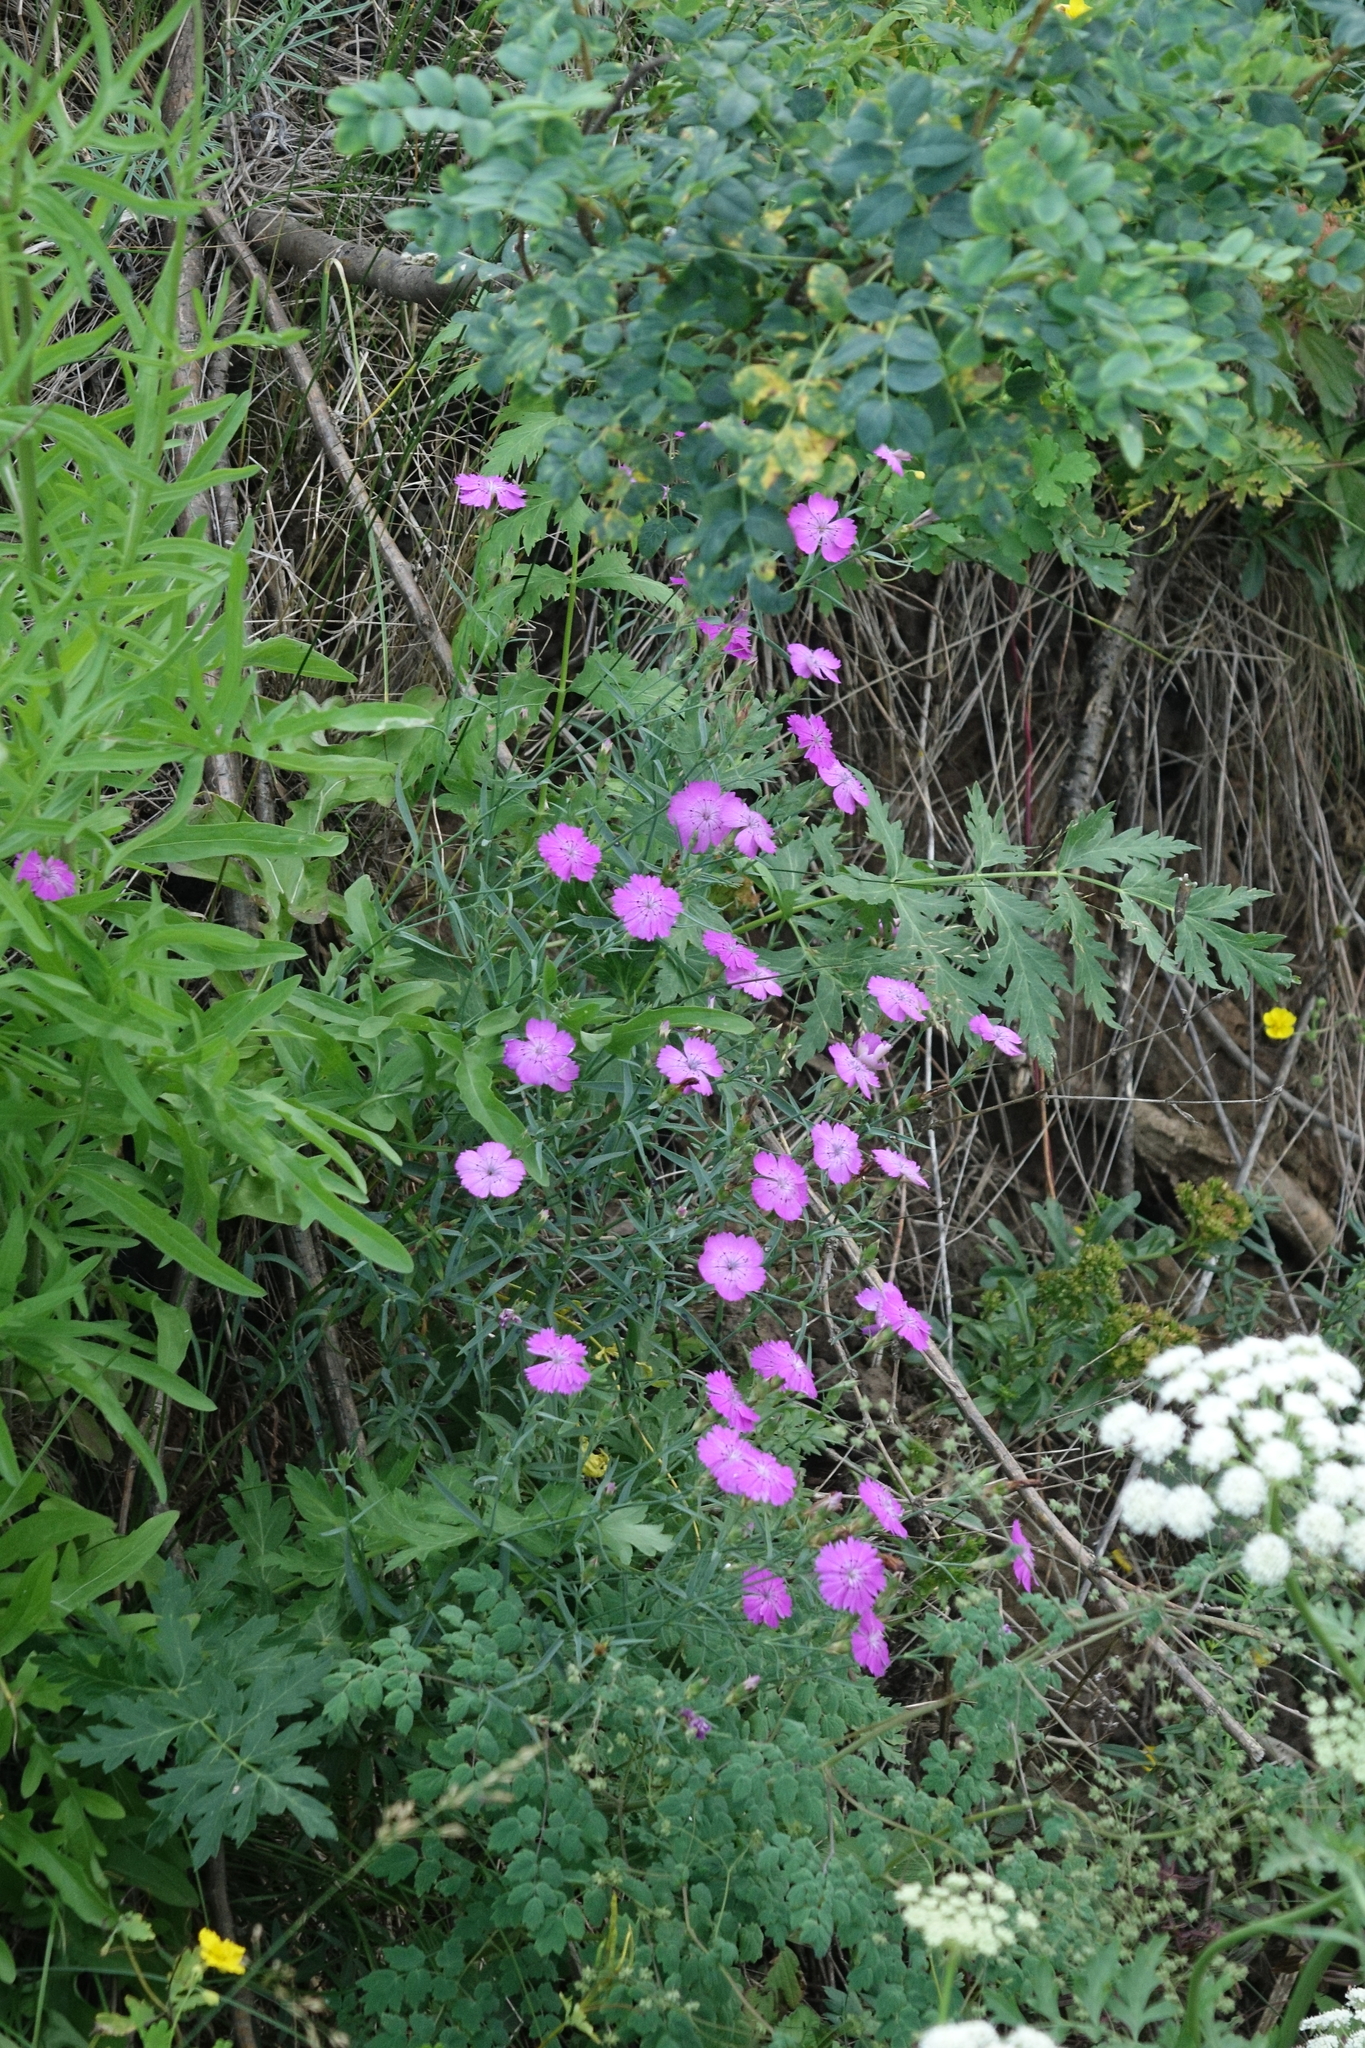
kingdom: Plantae
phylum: Tracheophyta
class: Magnoliopsida
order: Caryophyllales
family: Caryophyllaceae
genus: Dianthus
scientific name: Dianthus chinensis
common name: Rainbow pink
